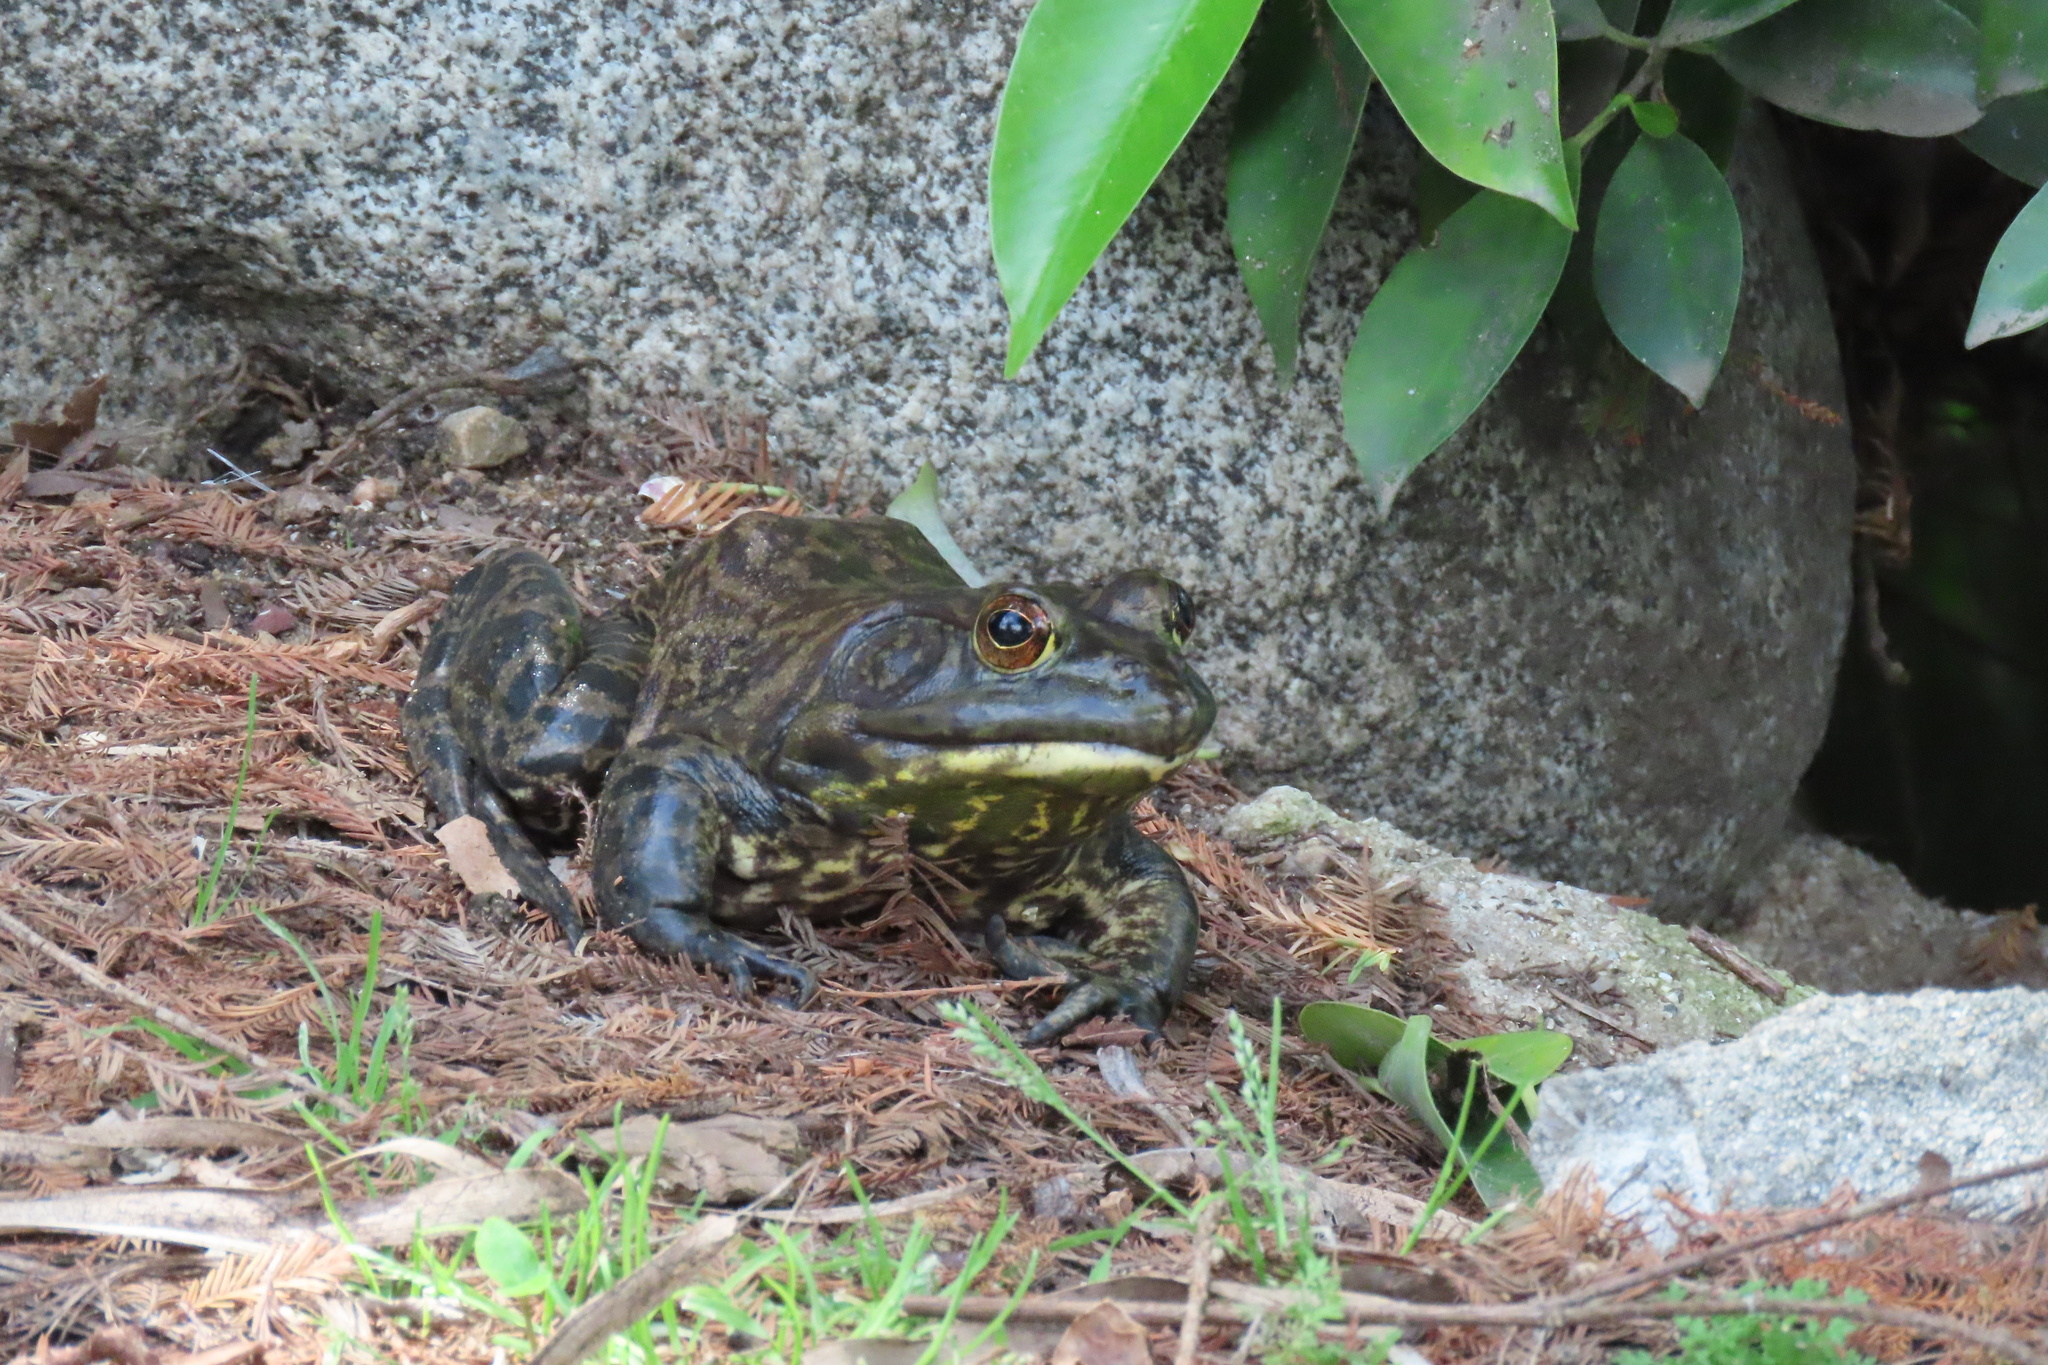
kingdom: Animalia
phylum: Chordata
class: Amphibia
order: Anura
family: Ranidae
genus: Lithobates
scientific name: Lithobates catesbeianus
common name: American bullfrog
